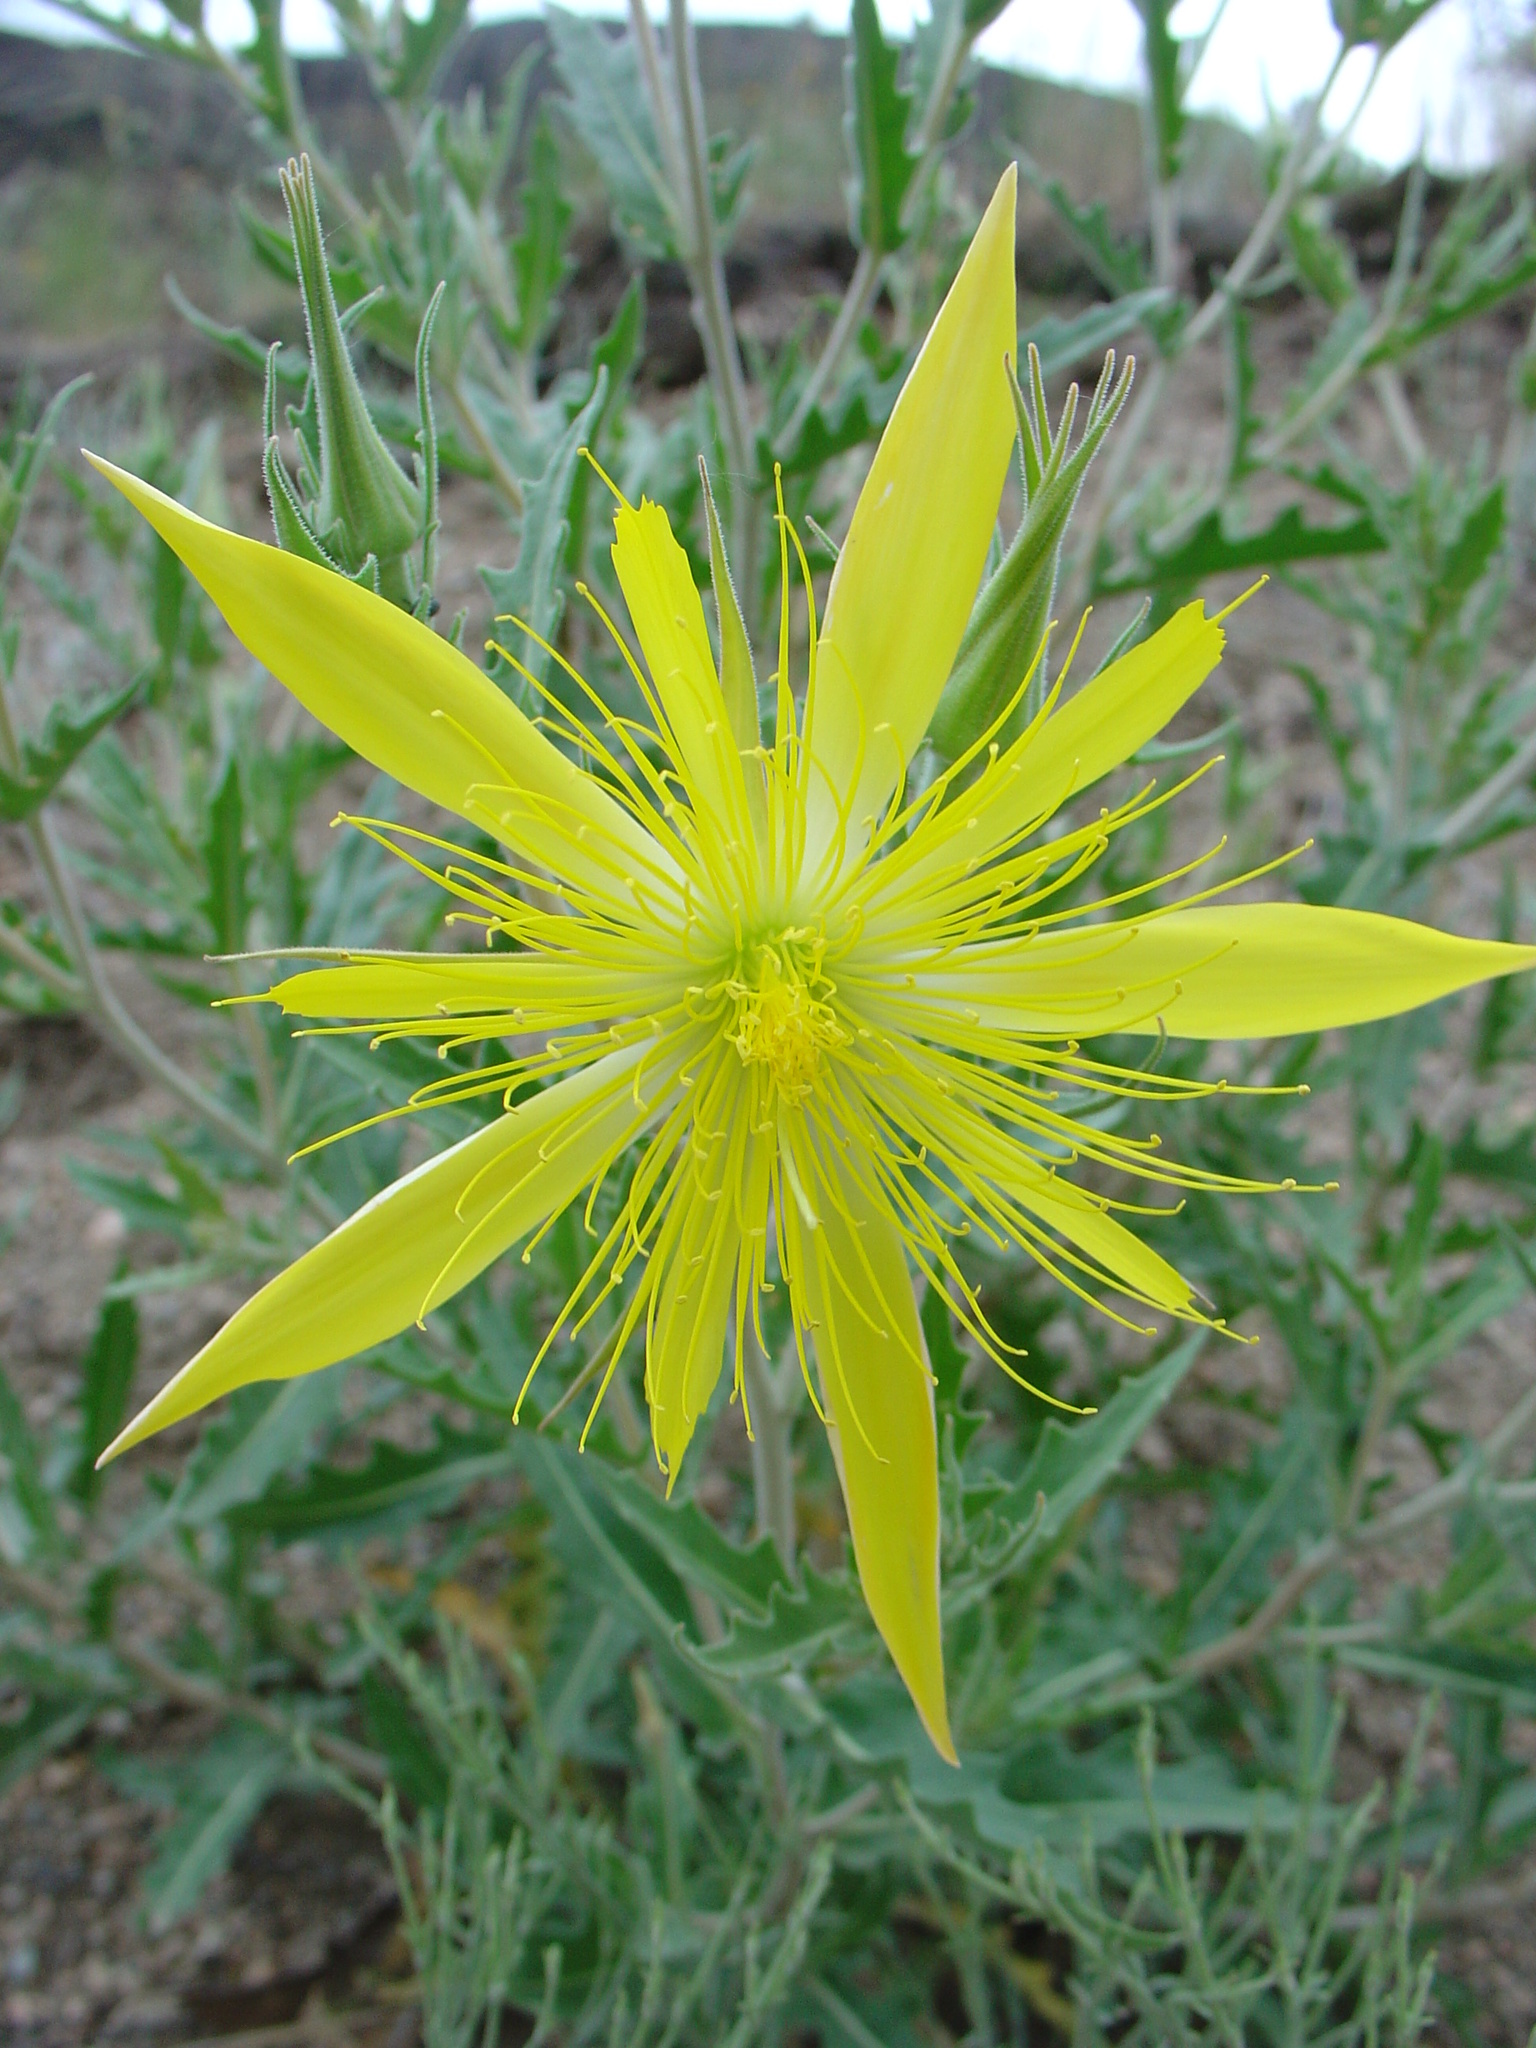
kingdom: Plantae
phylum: Tracheophyta
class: Magnoliopsida
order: Cornales
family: Loasaceae
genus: Mentzelia
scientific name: Mentzelia laevicaulis
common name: Smooth-stem blazingstar
